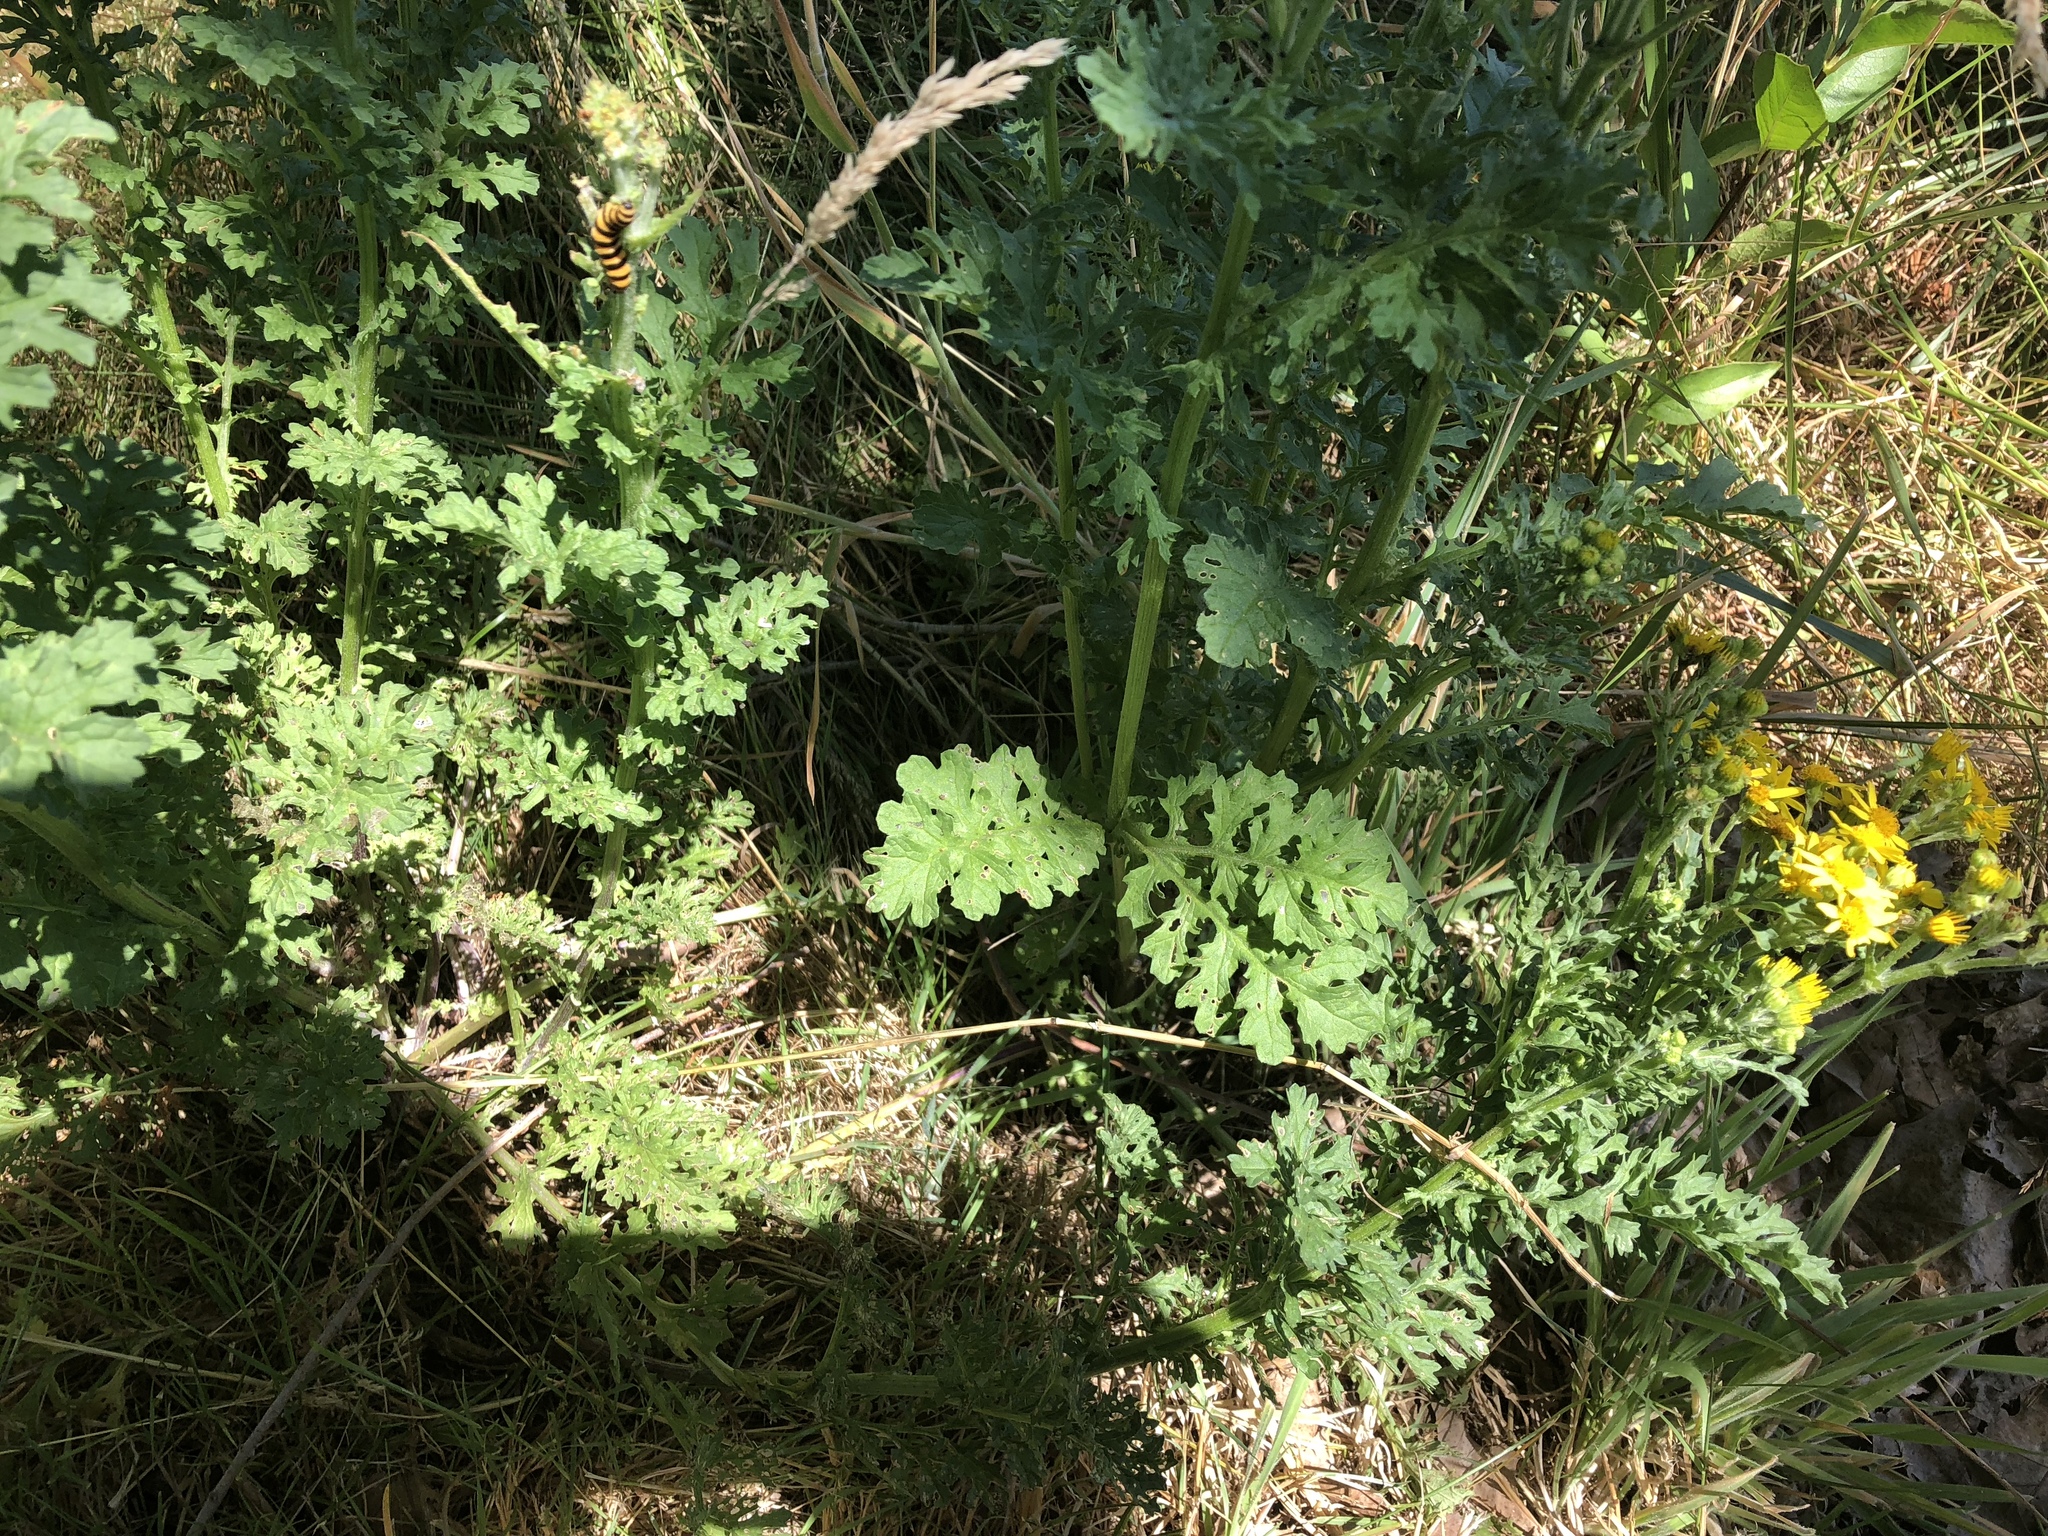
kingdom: Plantae
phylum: Tracheophyta
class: Magnoliopsida
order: Asterales
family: Asteraceae
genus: Jacobaea
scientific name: Jacobaea vulgaris
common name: Stinking willie
